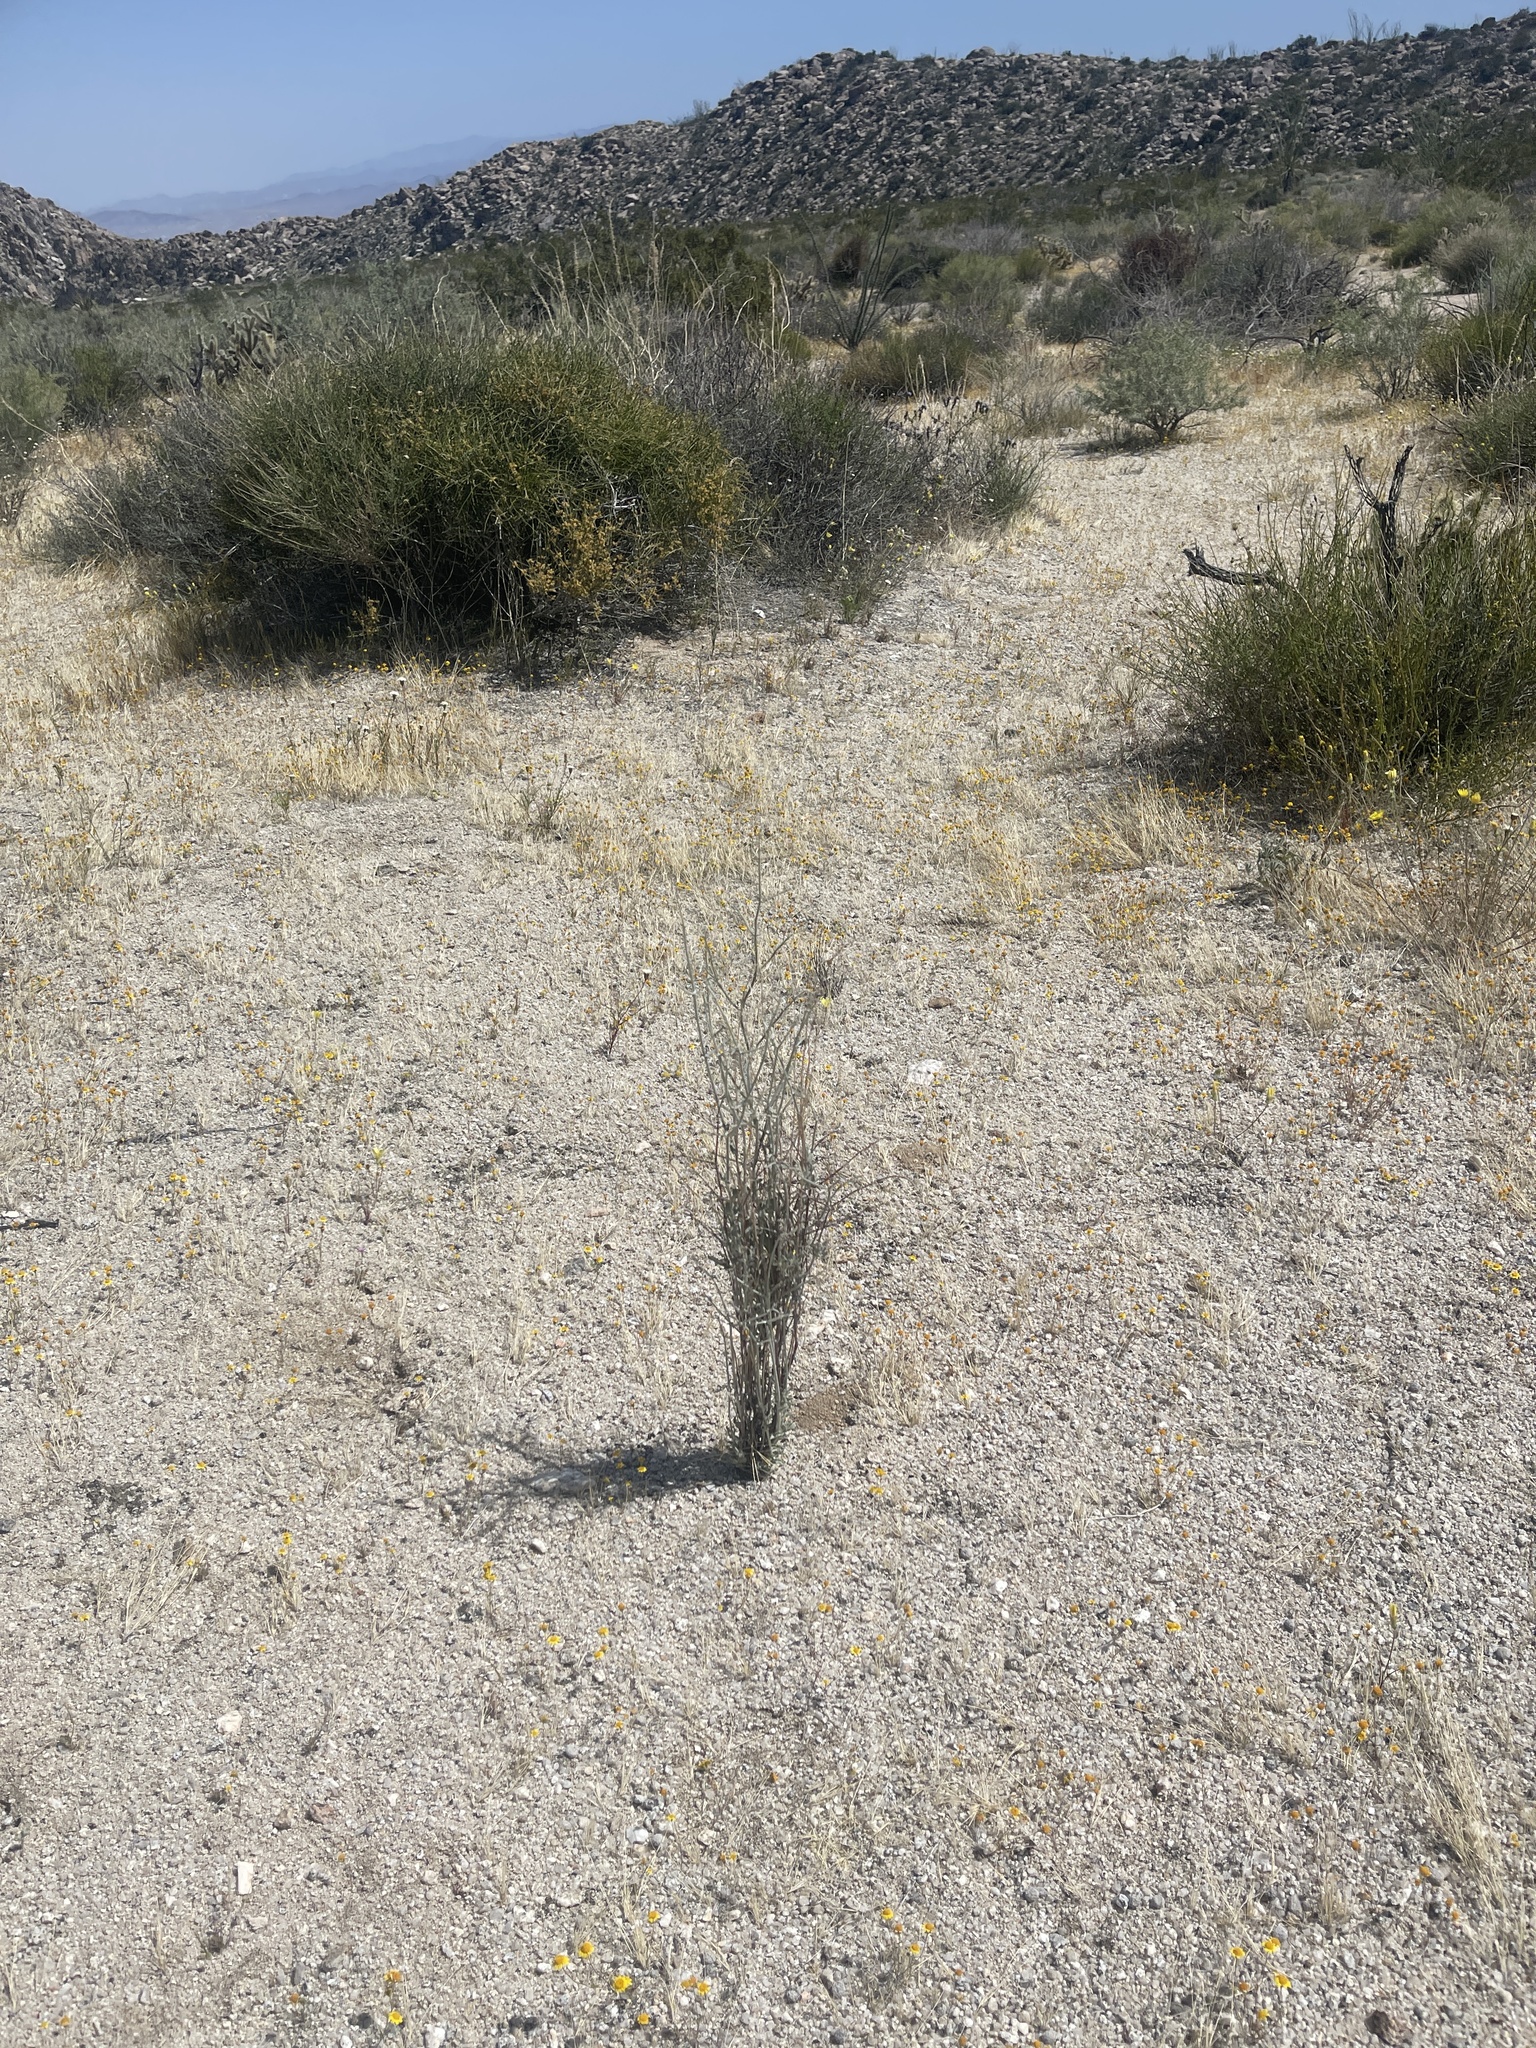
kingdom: Plantae
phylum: Tracheophyta
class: Magnoliopsida
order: Caryophyllales
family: Polygonaceae
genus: Eriogonum
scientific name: Eriogonum plumatella
